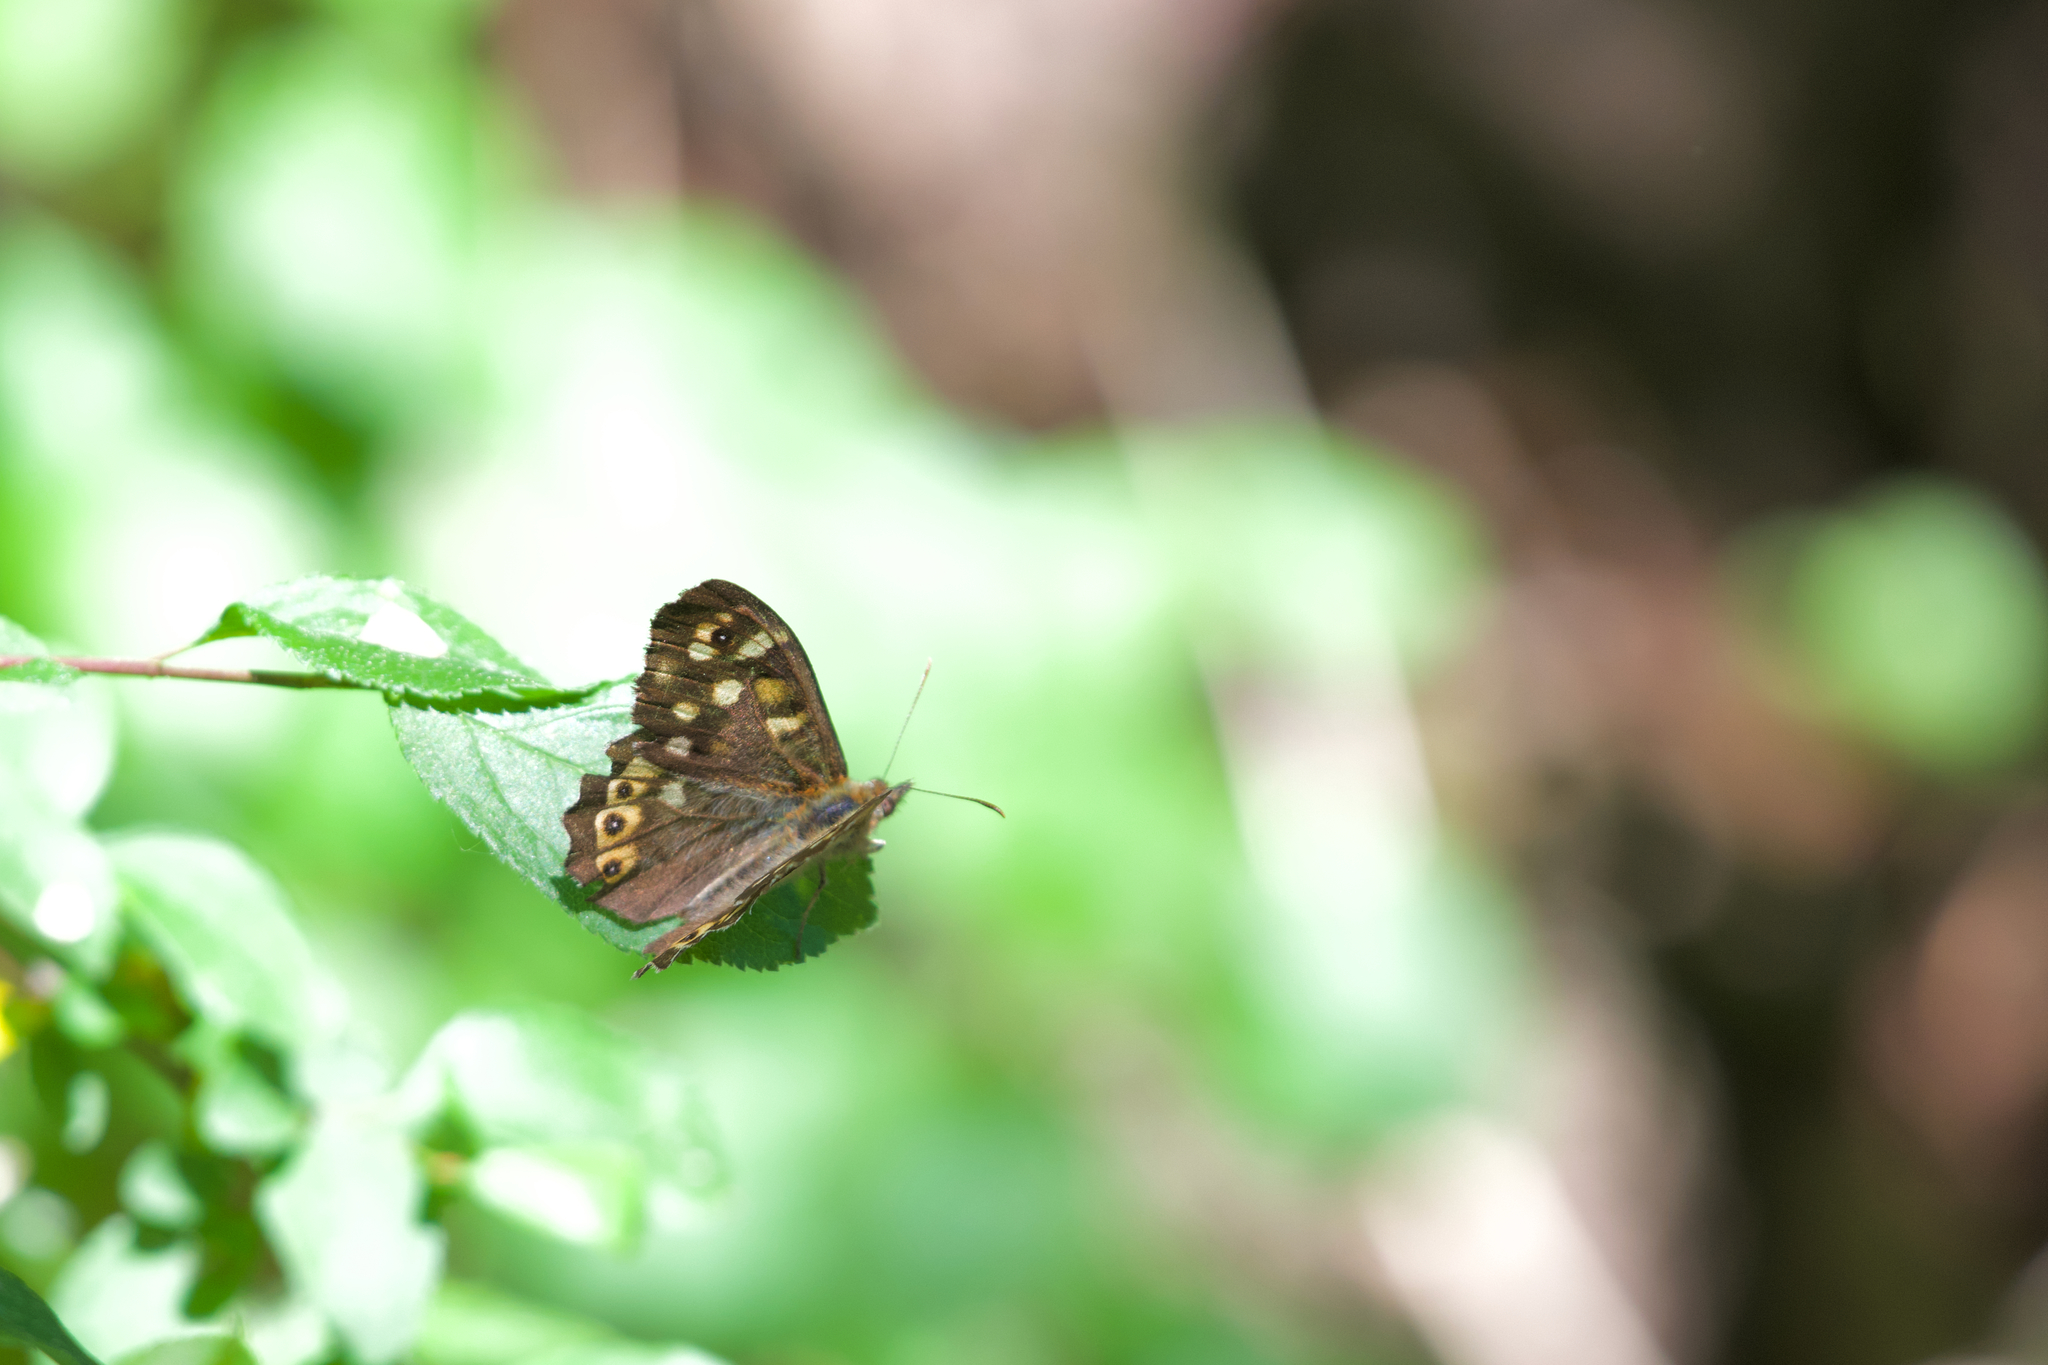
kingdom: Animalia
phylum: Arthropoda
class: Insecta
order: Lepidoptera
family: Nymphalidae
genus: Pararge
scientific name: Pararge aegeria
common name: Speckled wood
